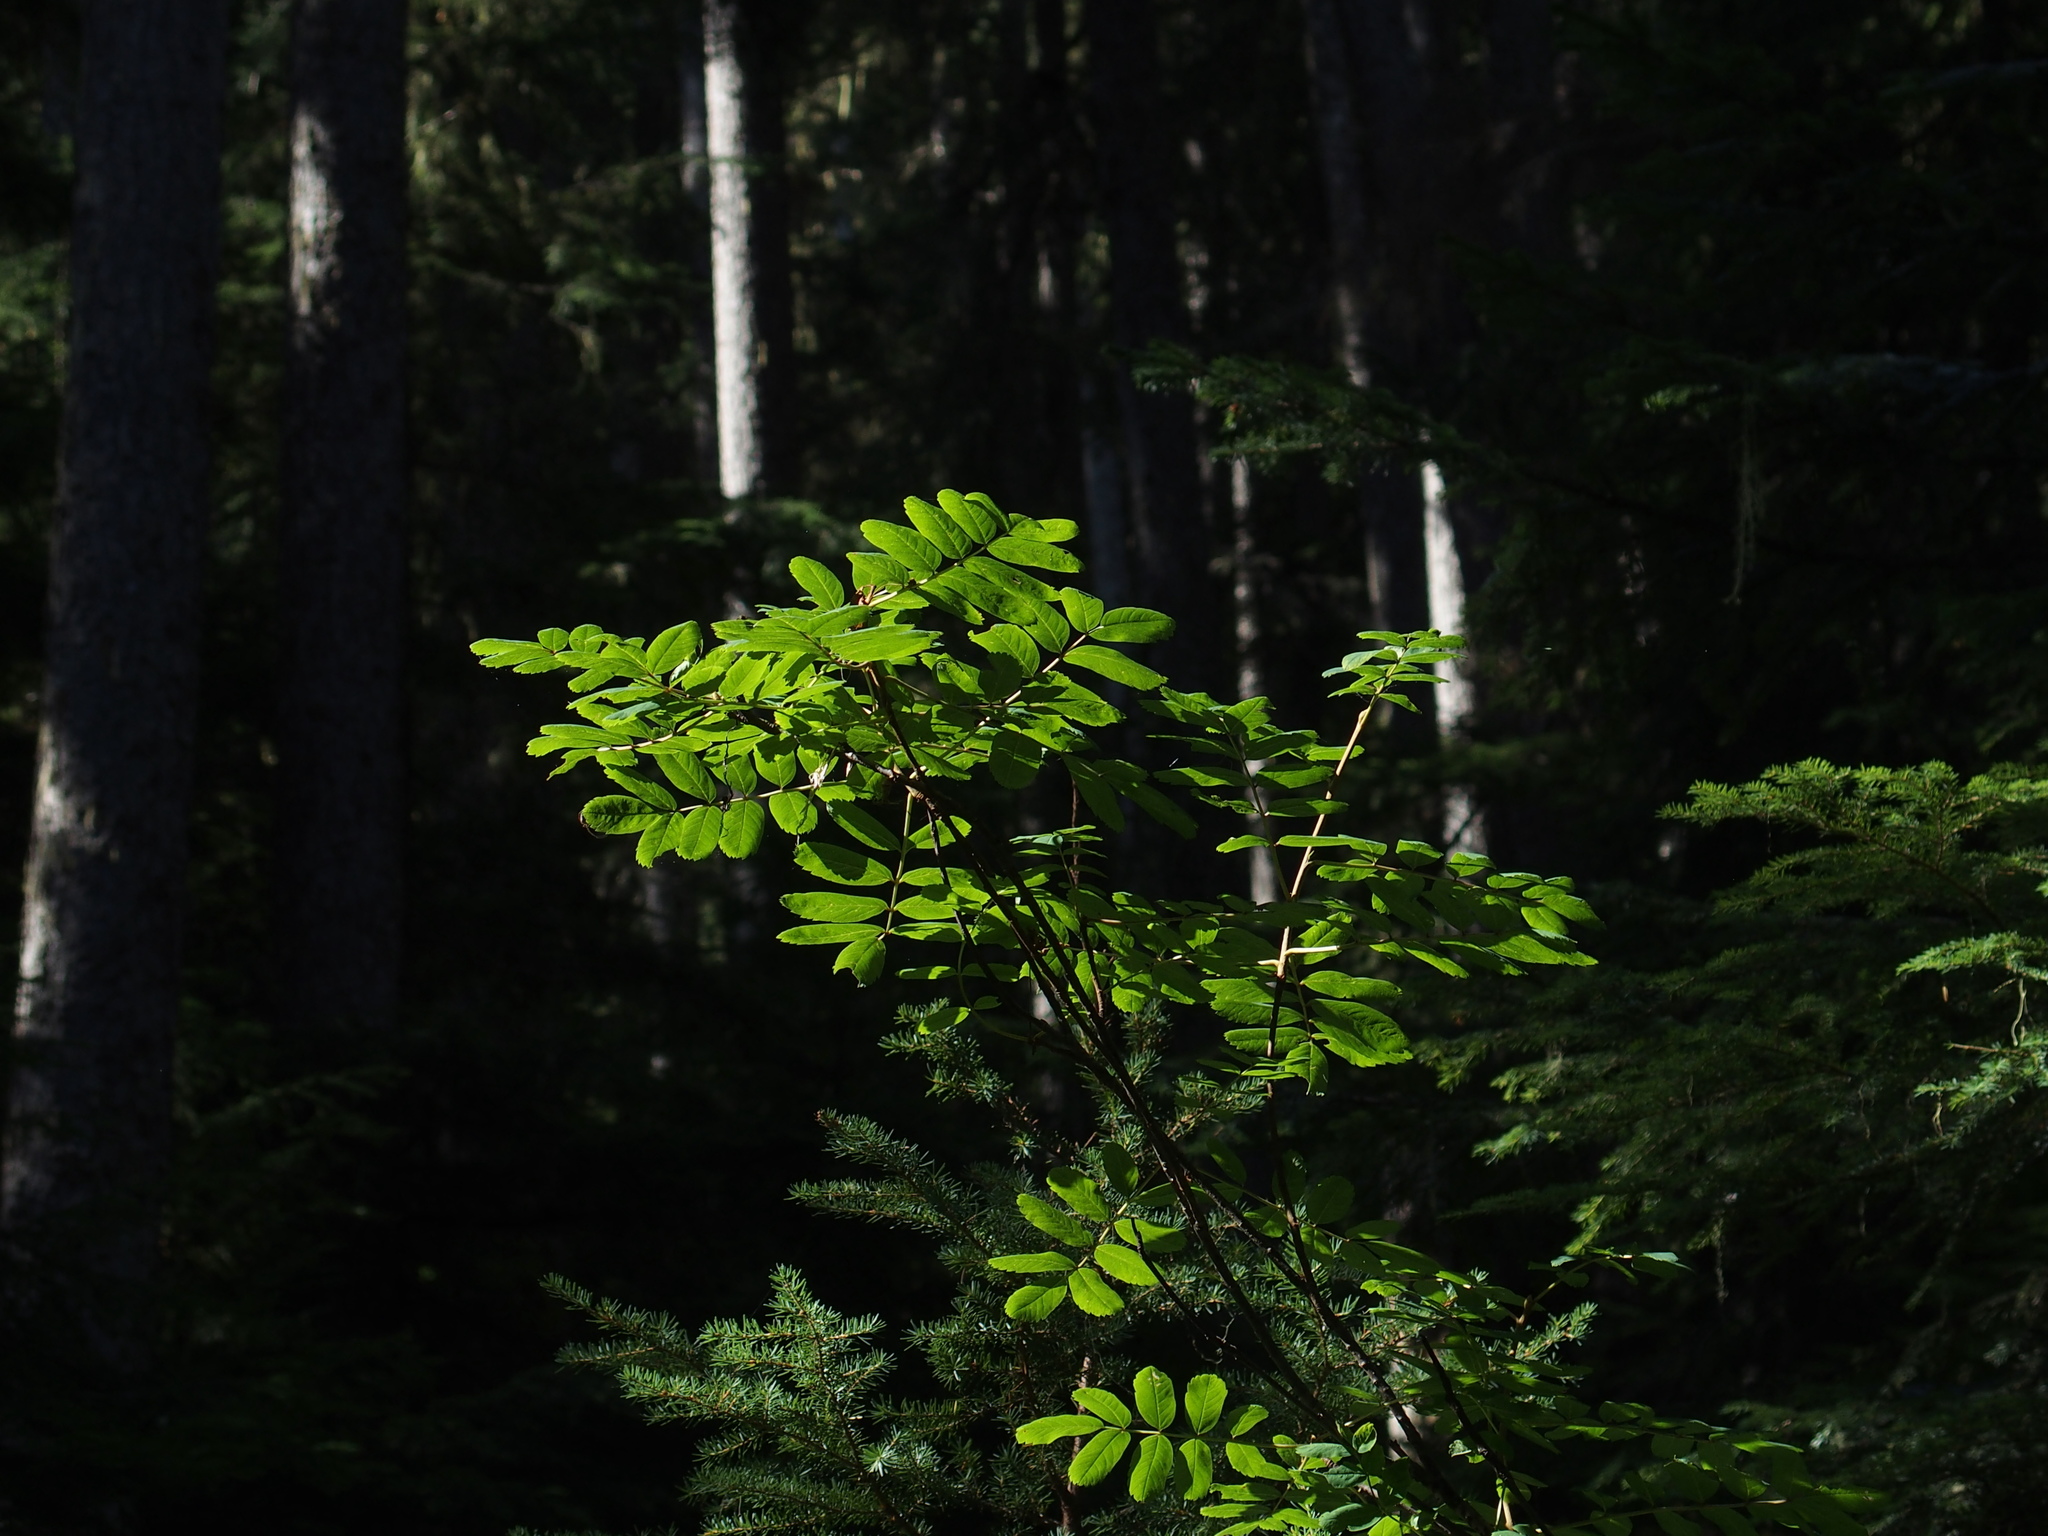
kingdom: Plantae
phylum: Tracheophyta
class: Magnoliopsida
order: Rosales
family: Rosaceae
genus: Sorbus
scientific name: Sorbus sitchensis
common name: Sitka mountain-ash
